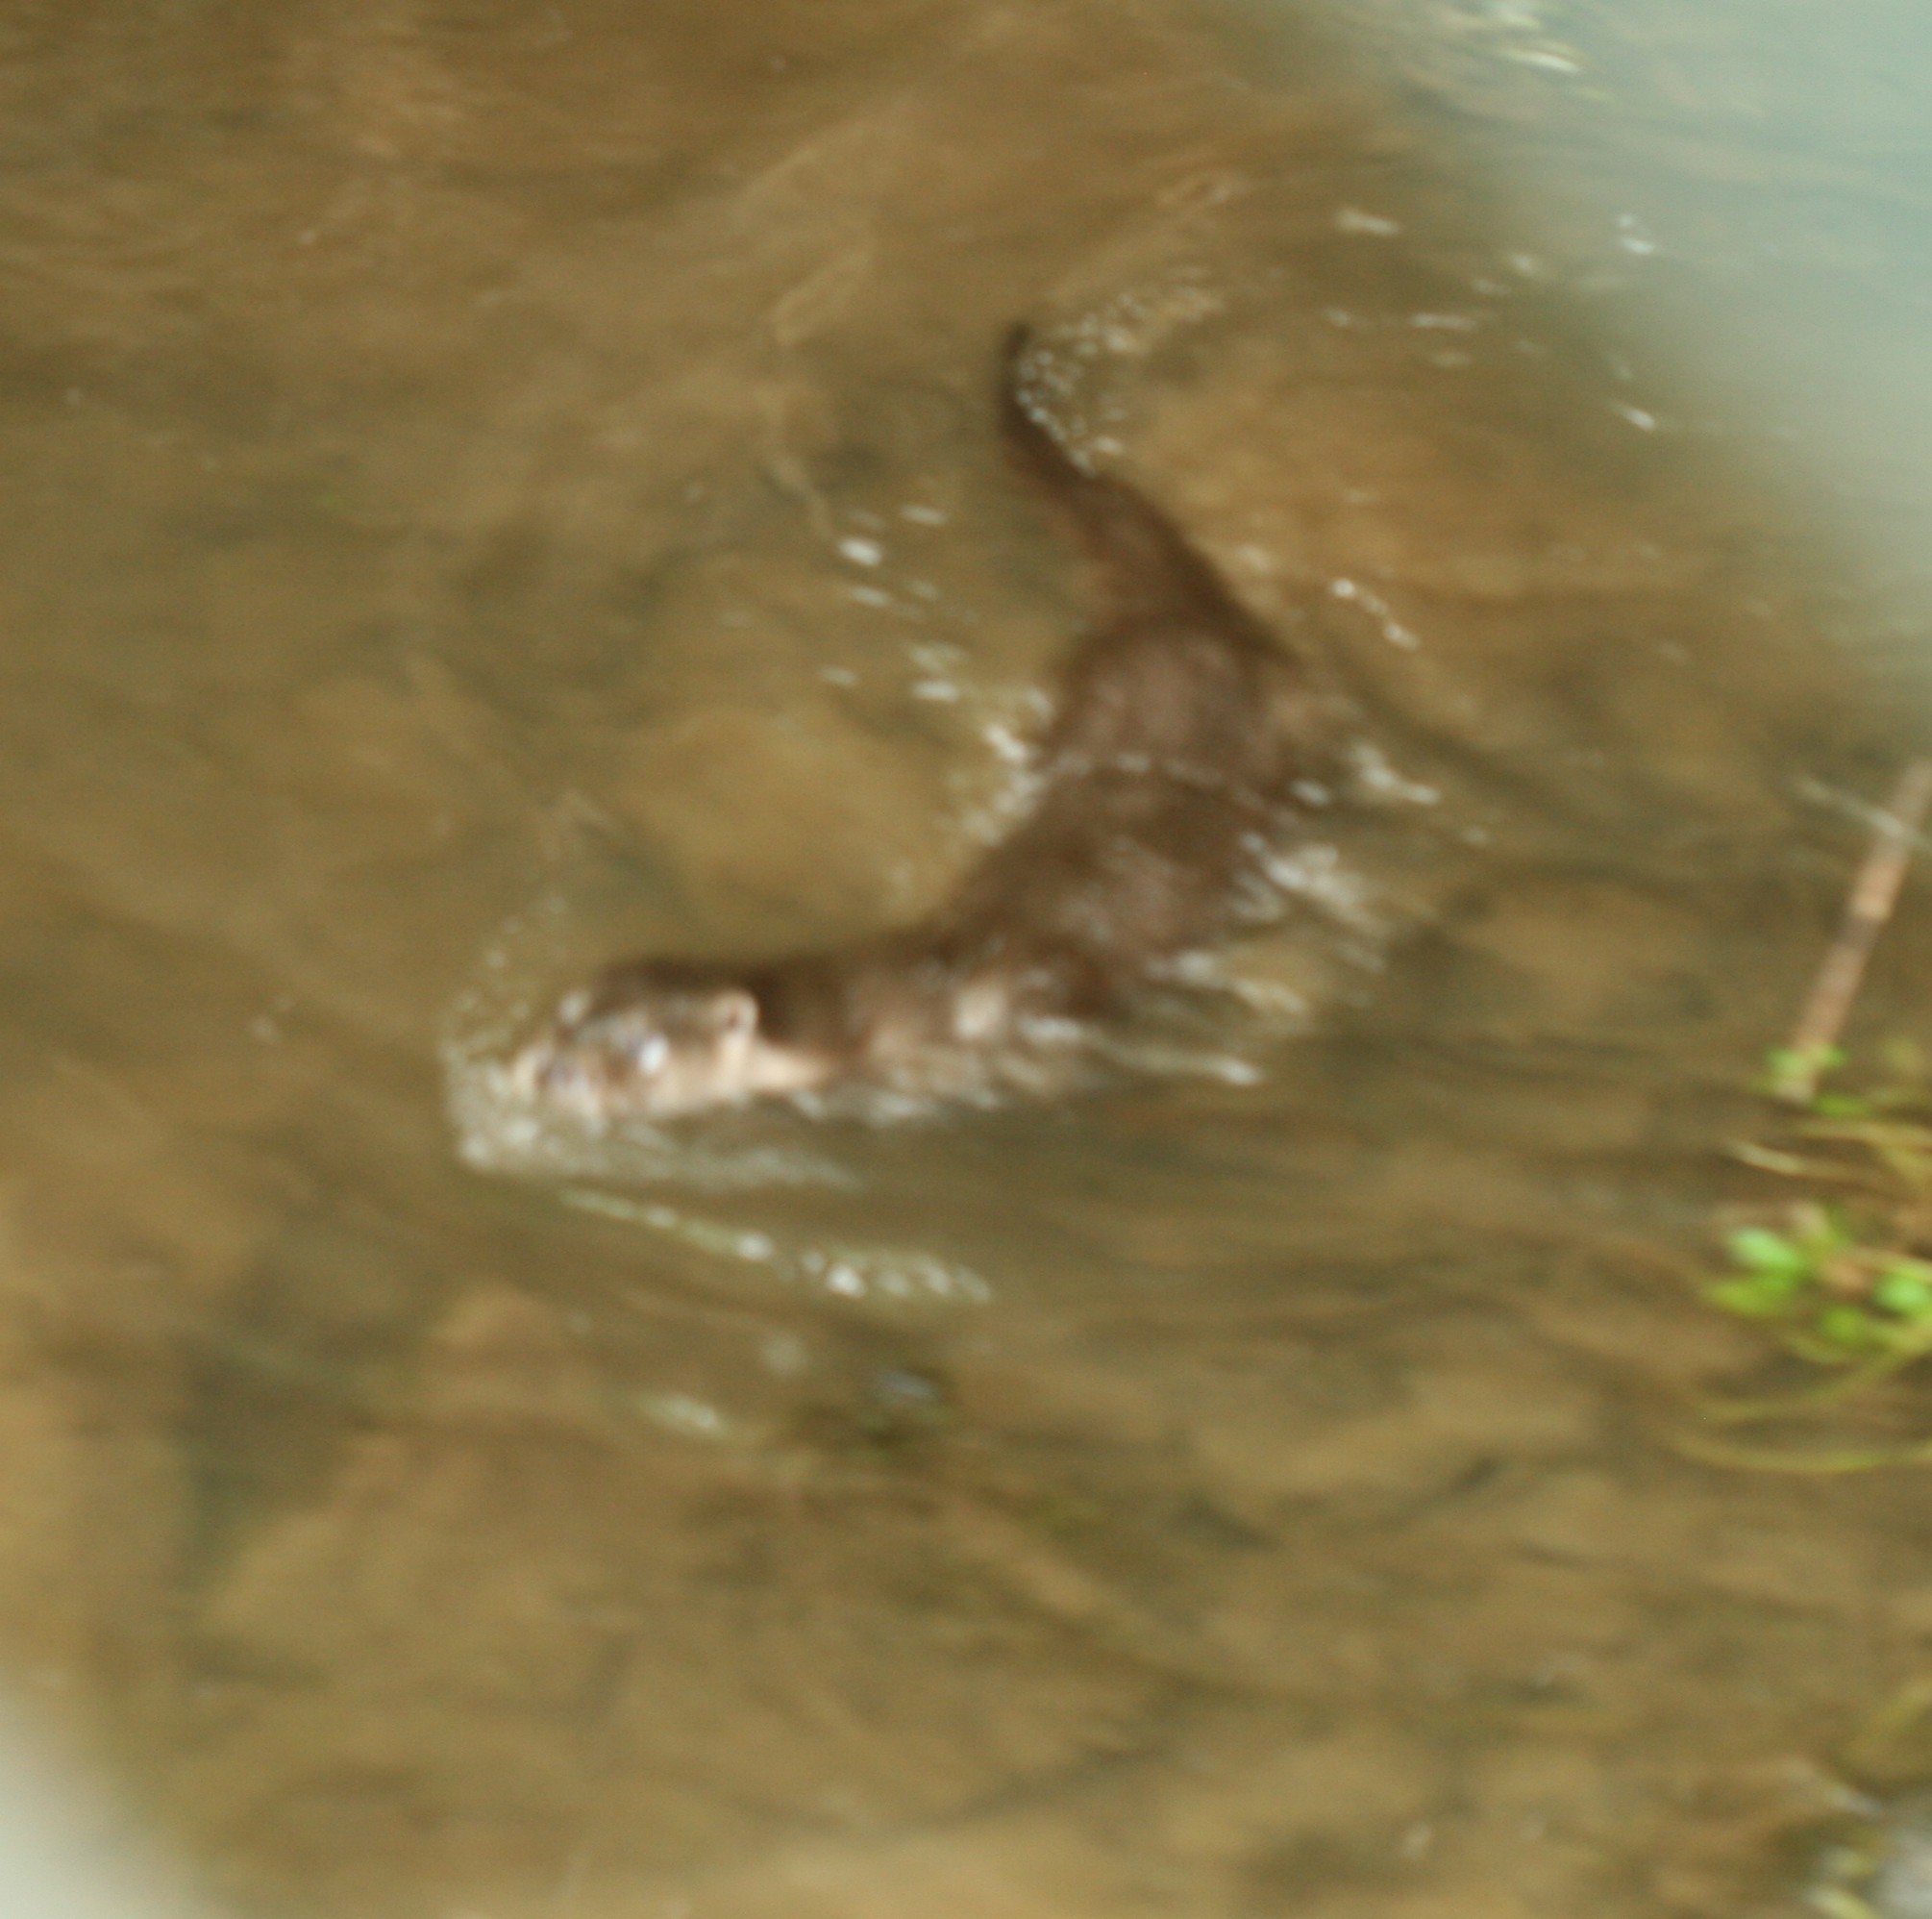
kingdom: Animalia
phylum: Chordata
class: Mammalia
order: Carnivora
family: Mustelidae
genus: Lutra
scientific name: Lutra lutra
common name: European otter
